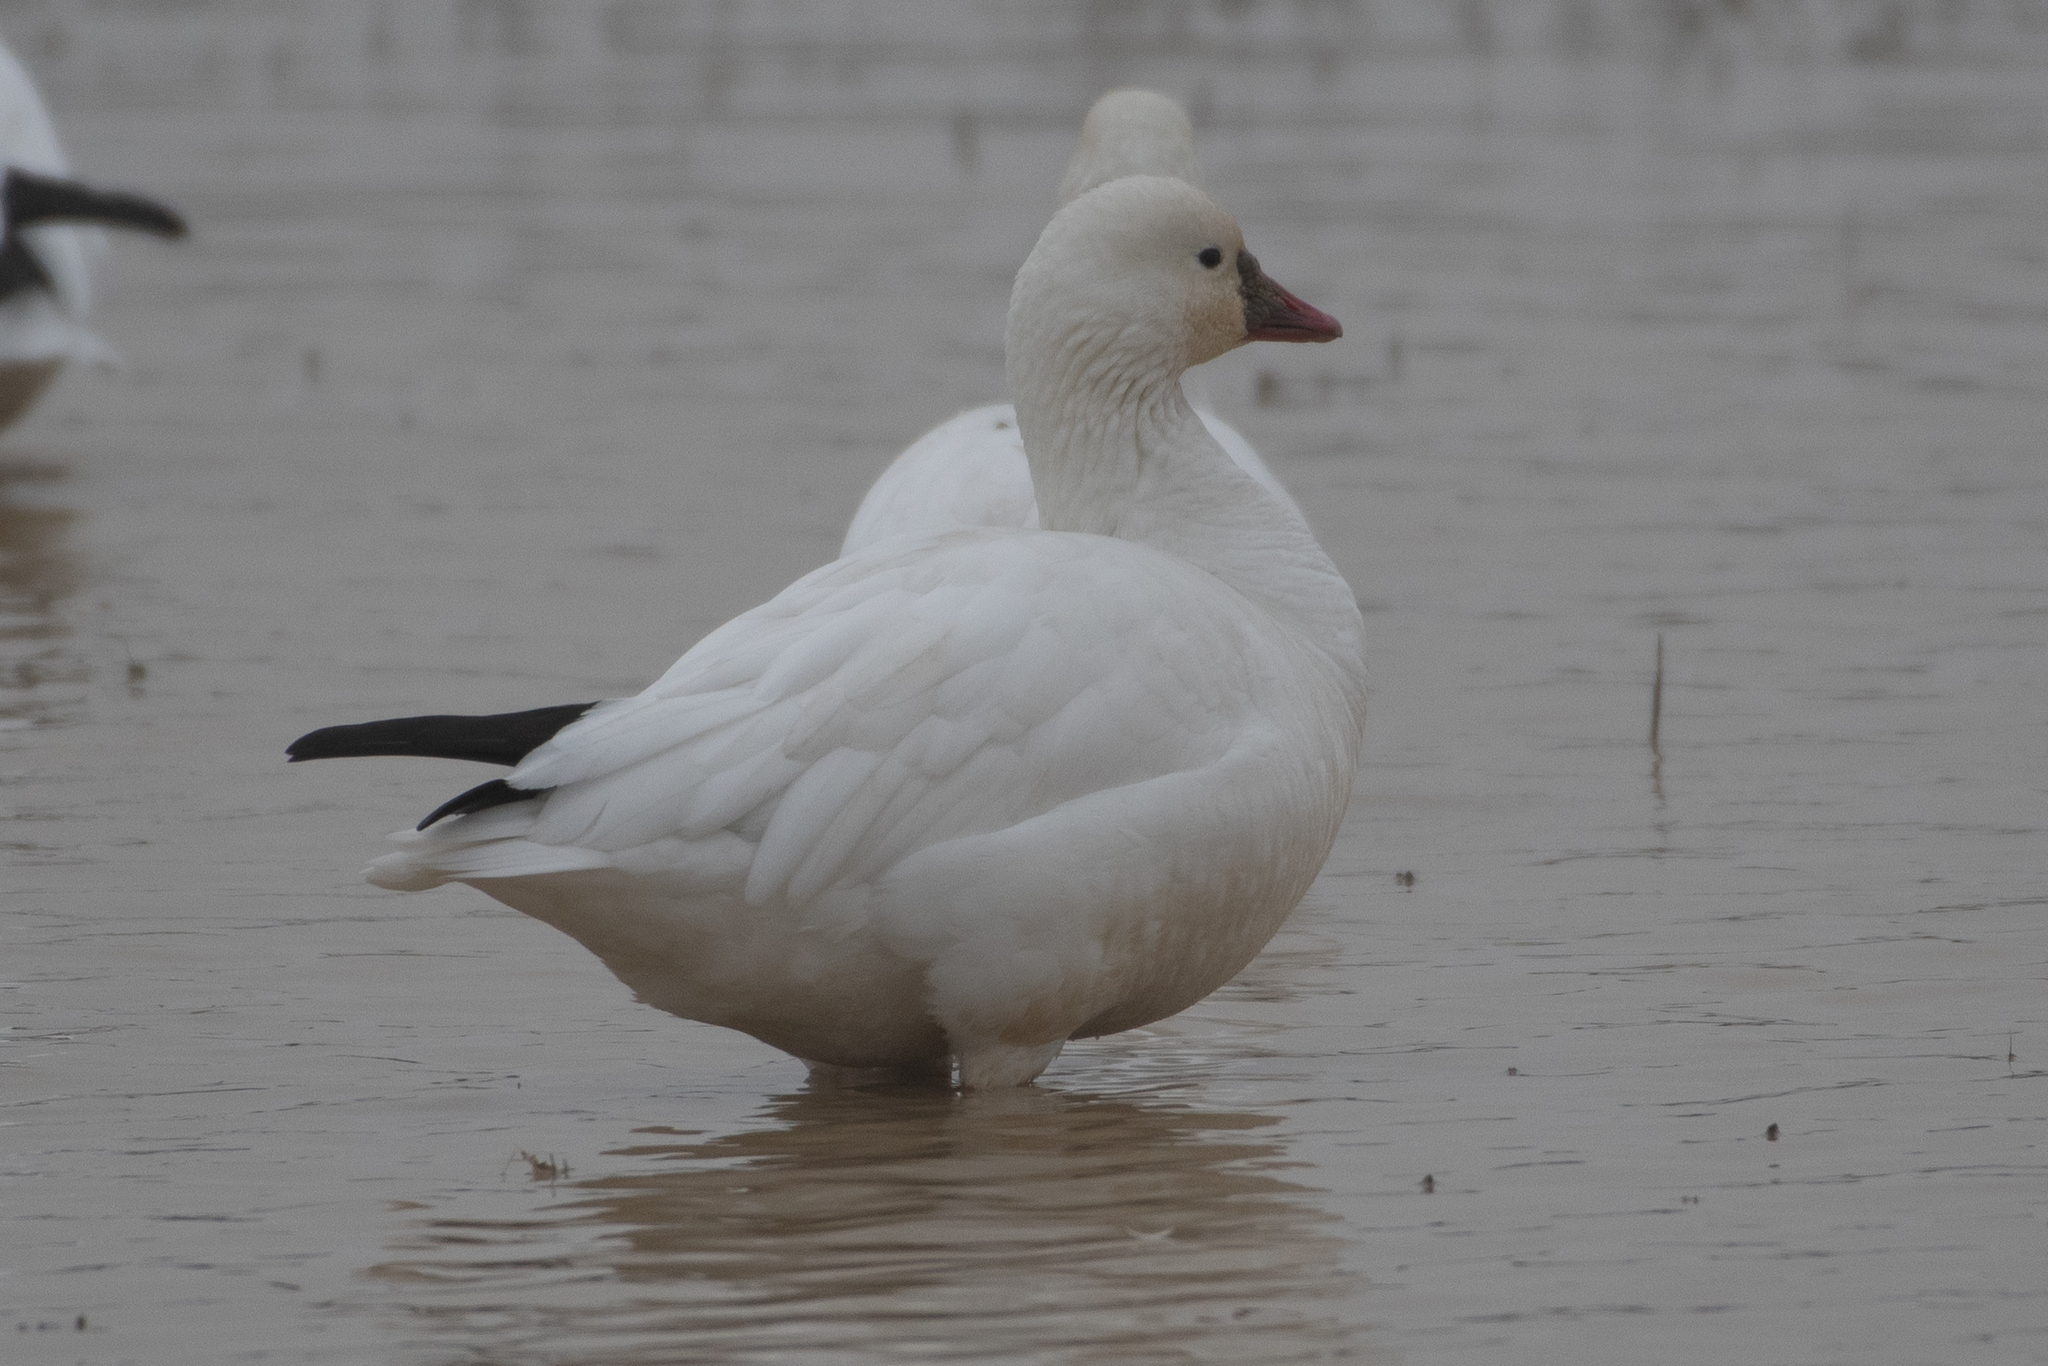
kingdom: Animalia
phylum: Chordata
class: Aves
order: Anseriformes
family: Anatidae
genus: Anser
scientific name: Anser rossii
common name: Ross's goose
